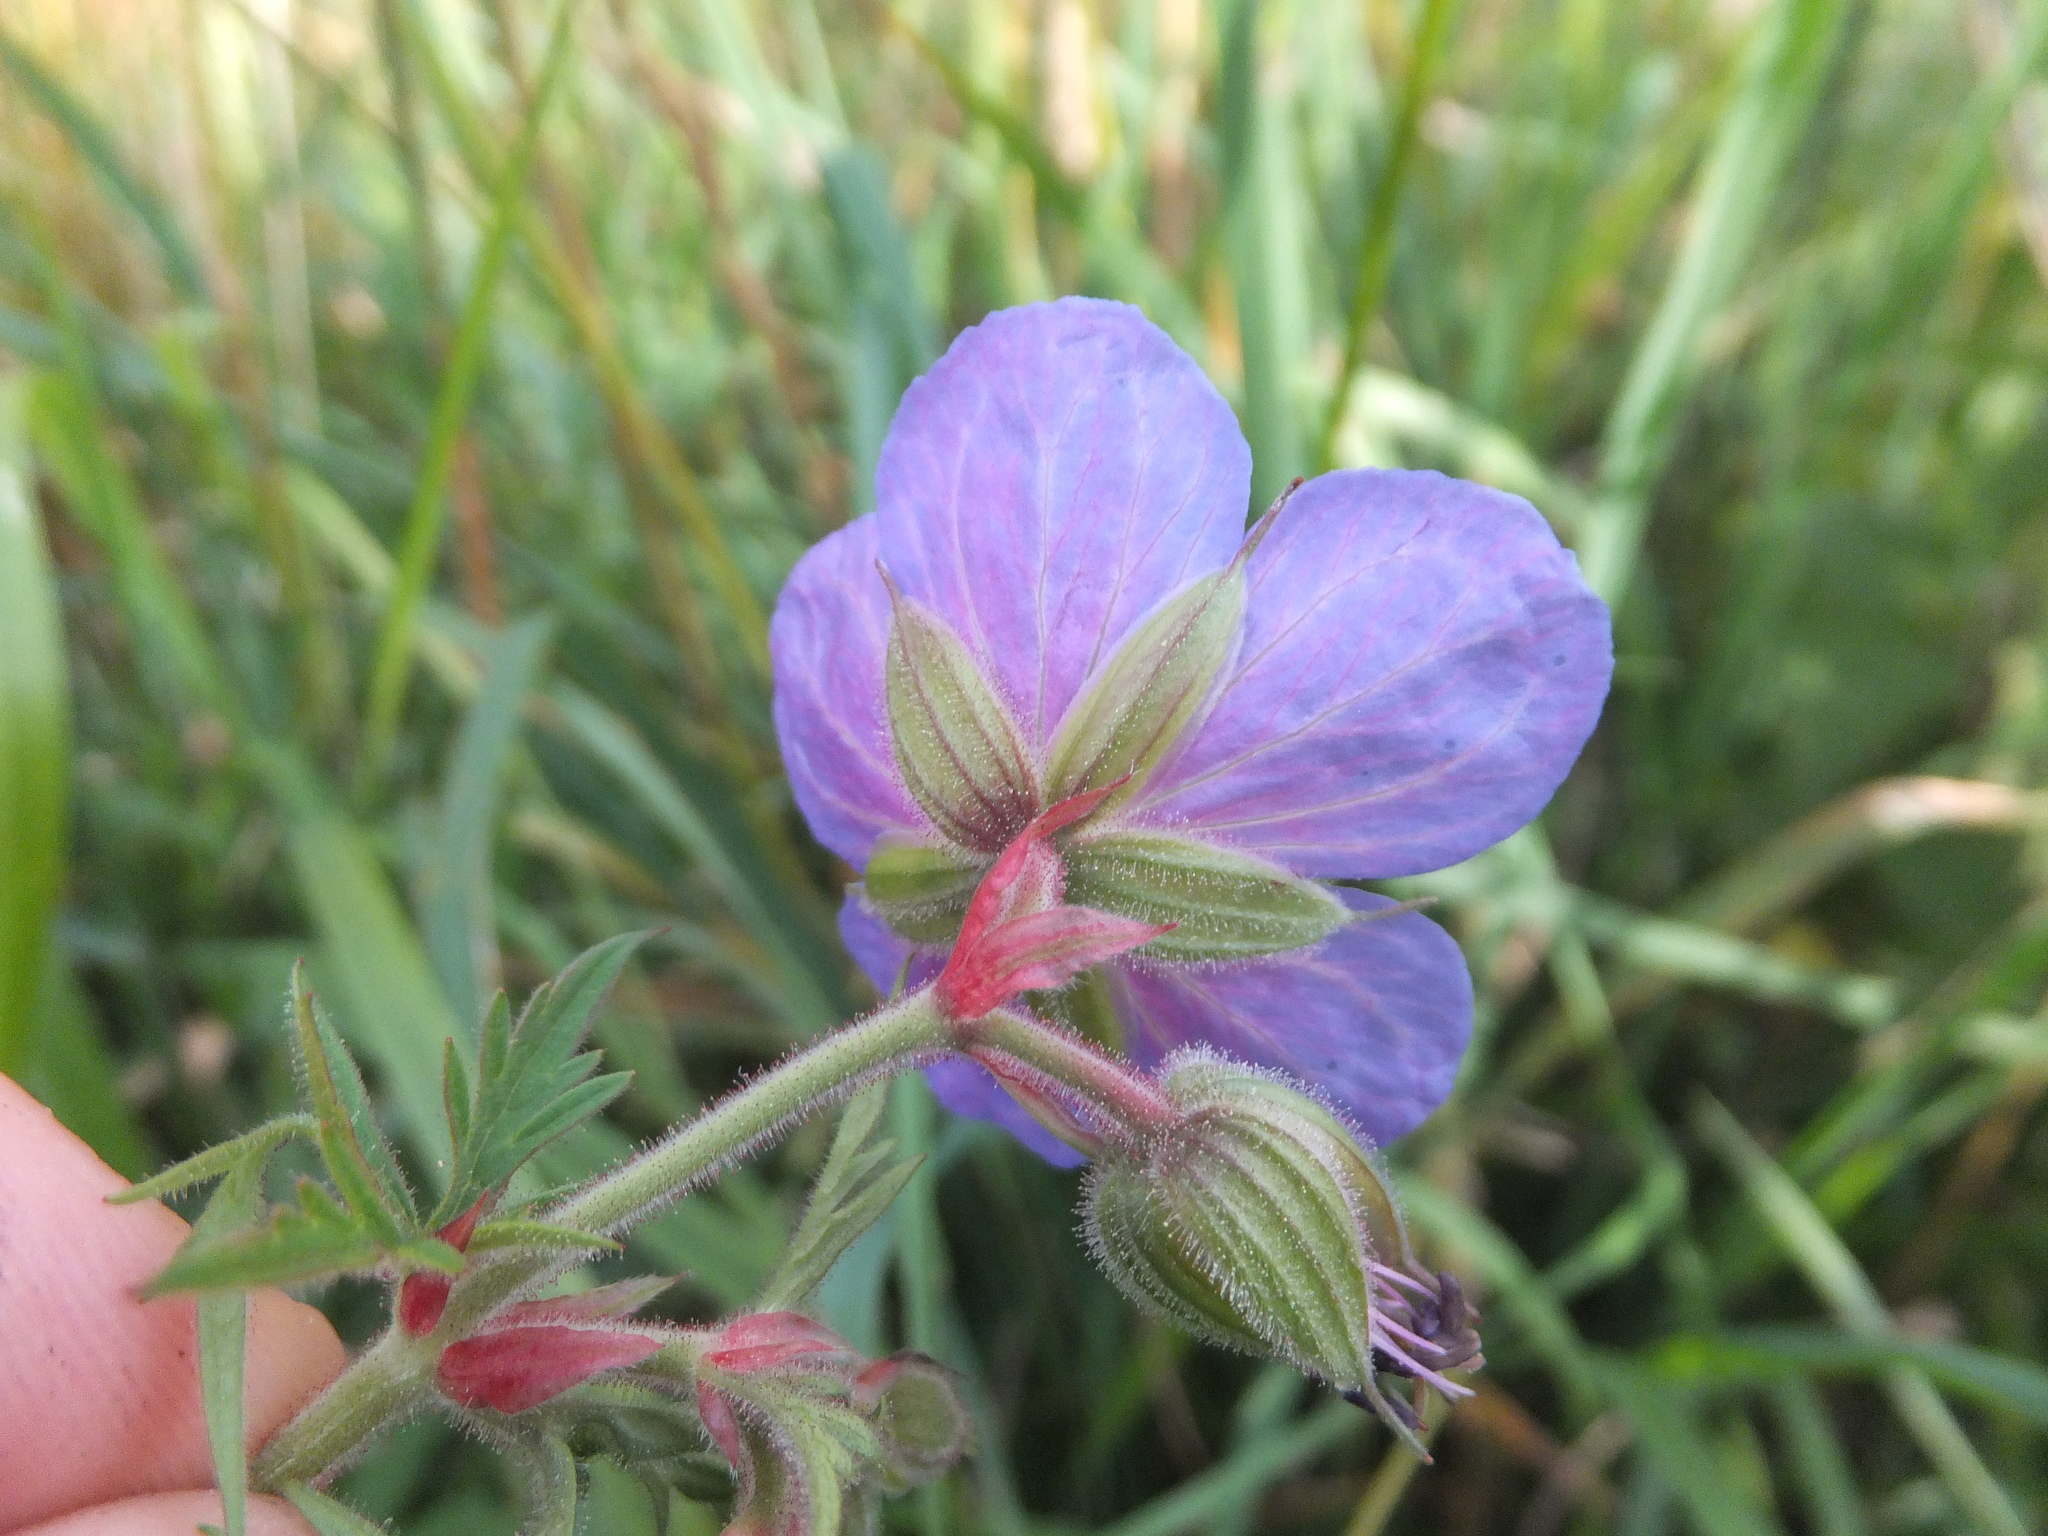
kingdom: Plantae
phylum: Tracheophyta
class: Magnoliopsida
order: Geraniales
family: Geraniaceae
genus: Geranium
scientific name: Geranium pratense
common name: Meadow crane's-bill
